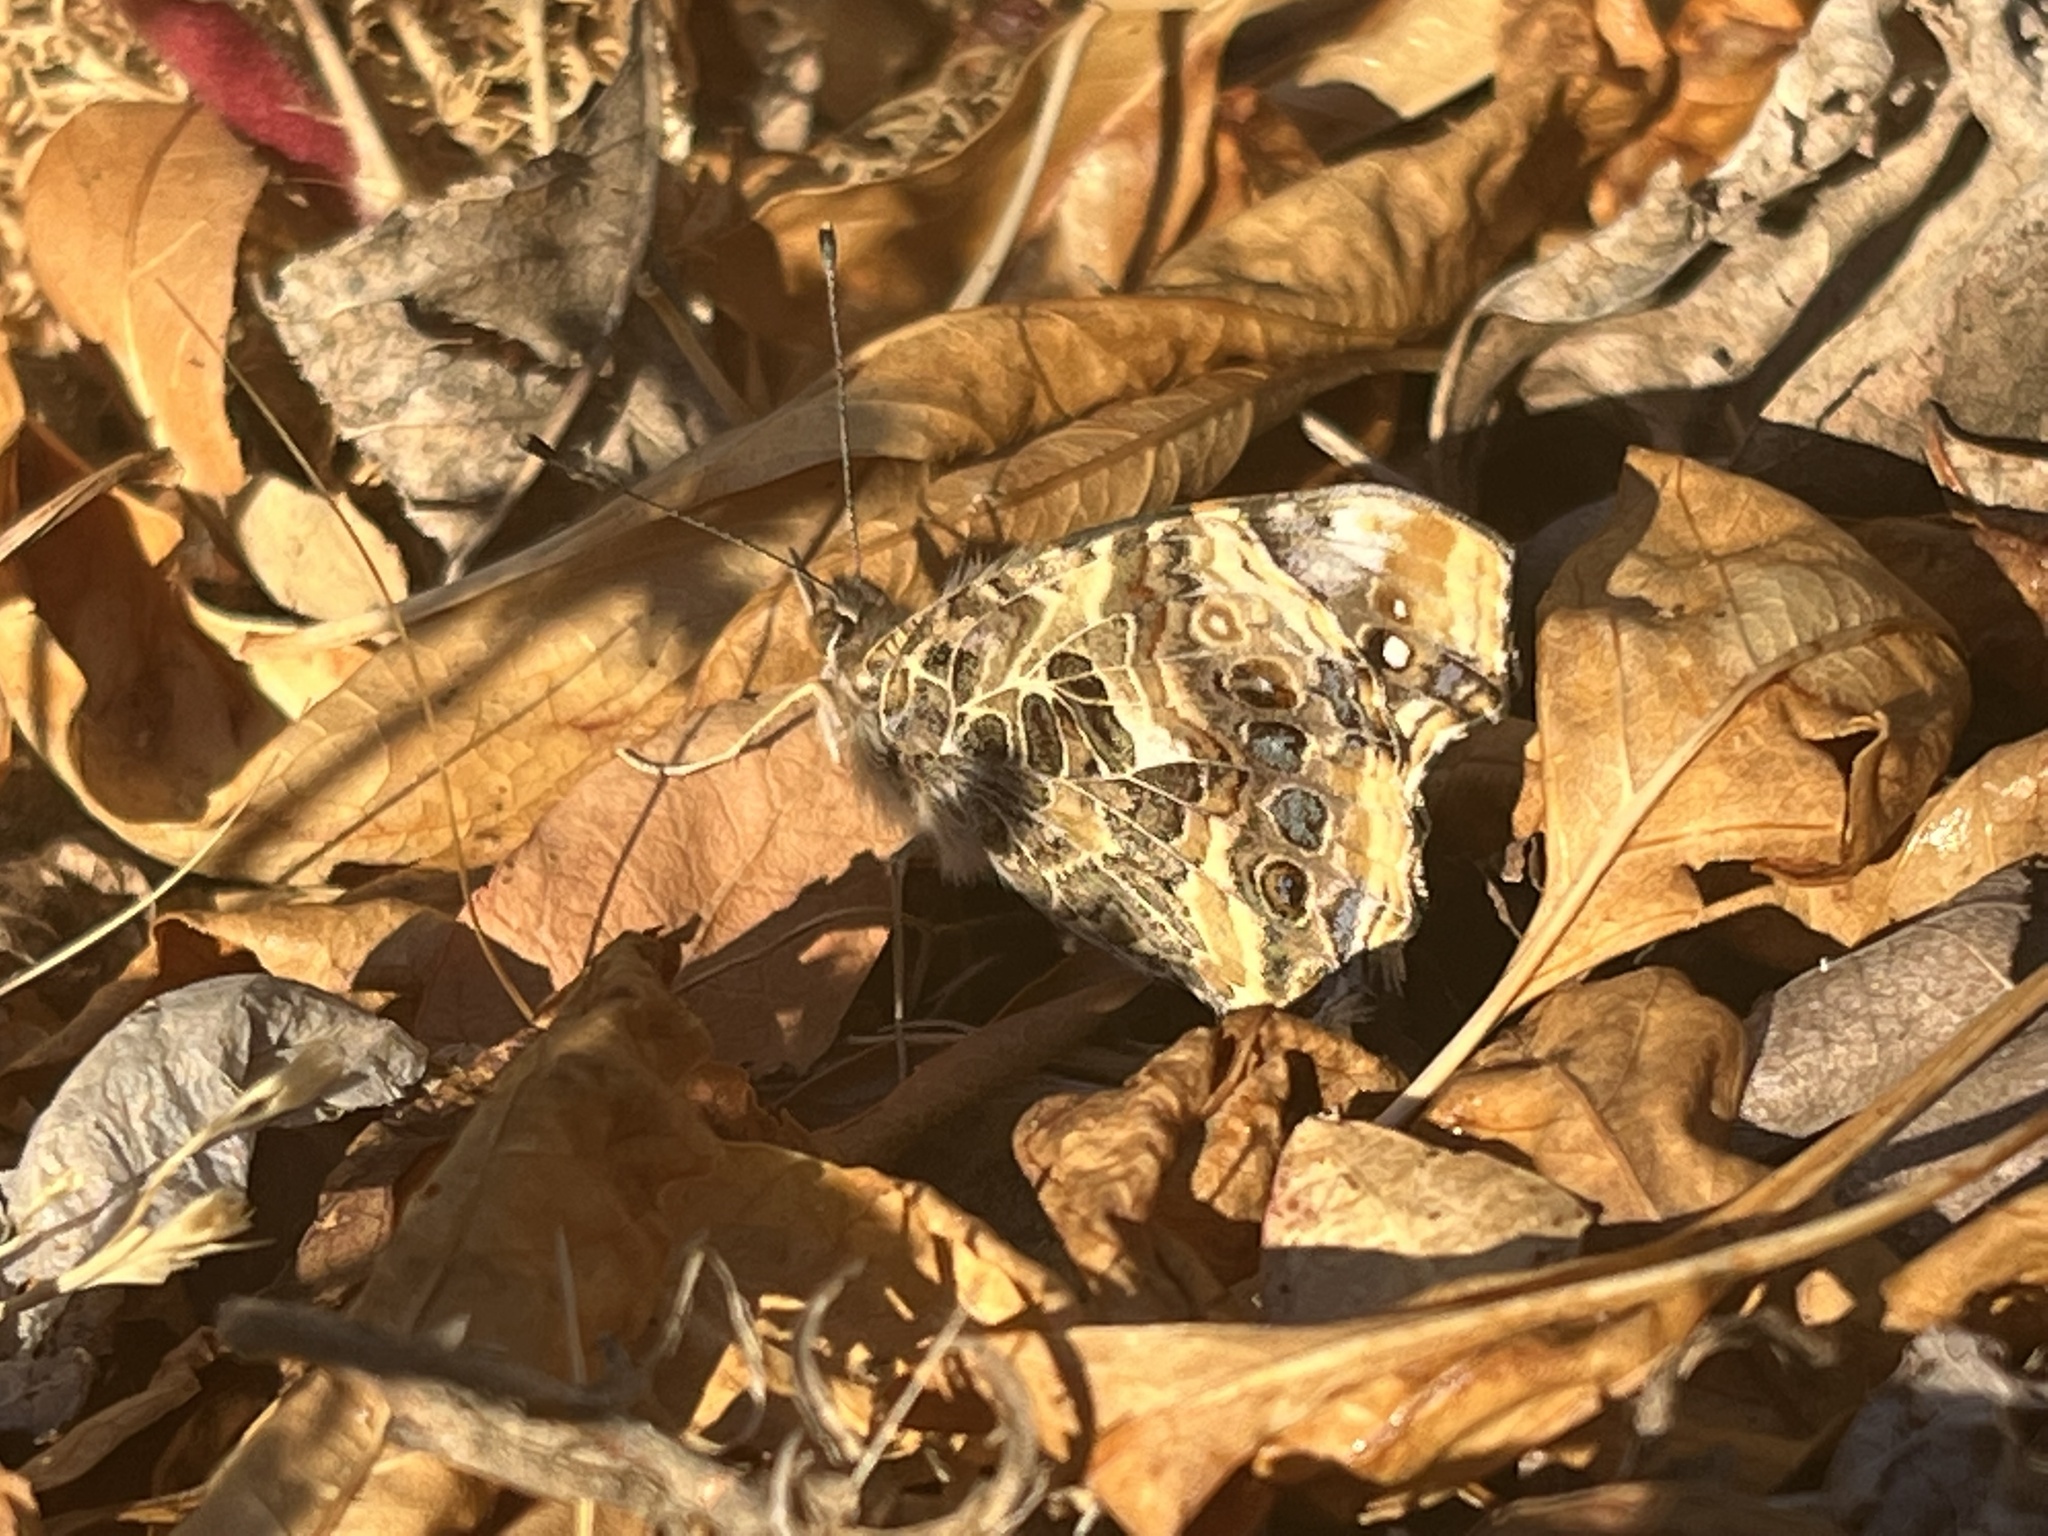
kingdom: Animalia
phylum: Arthropoda
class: Insecta
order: Lepidoptera
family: Nymphalidae
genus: Vanessa
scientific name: Vanessa annabella
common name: West coast lady
